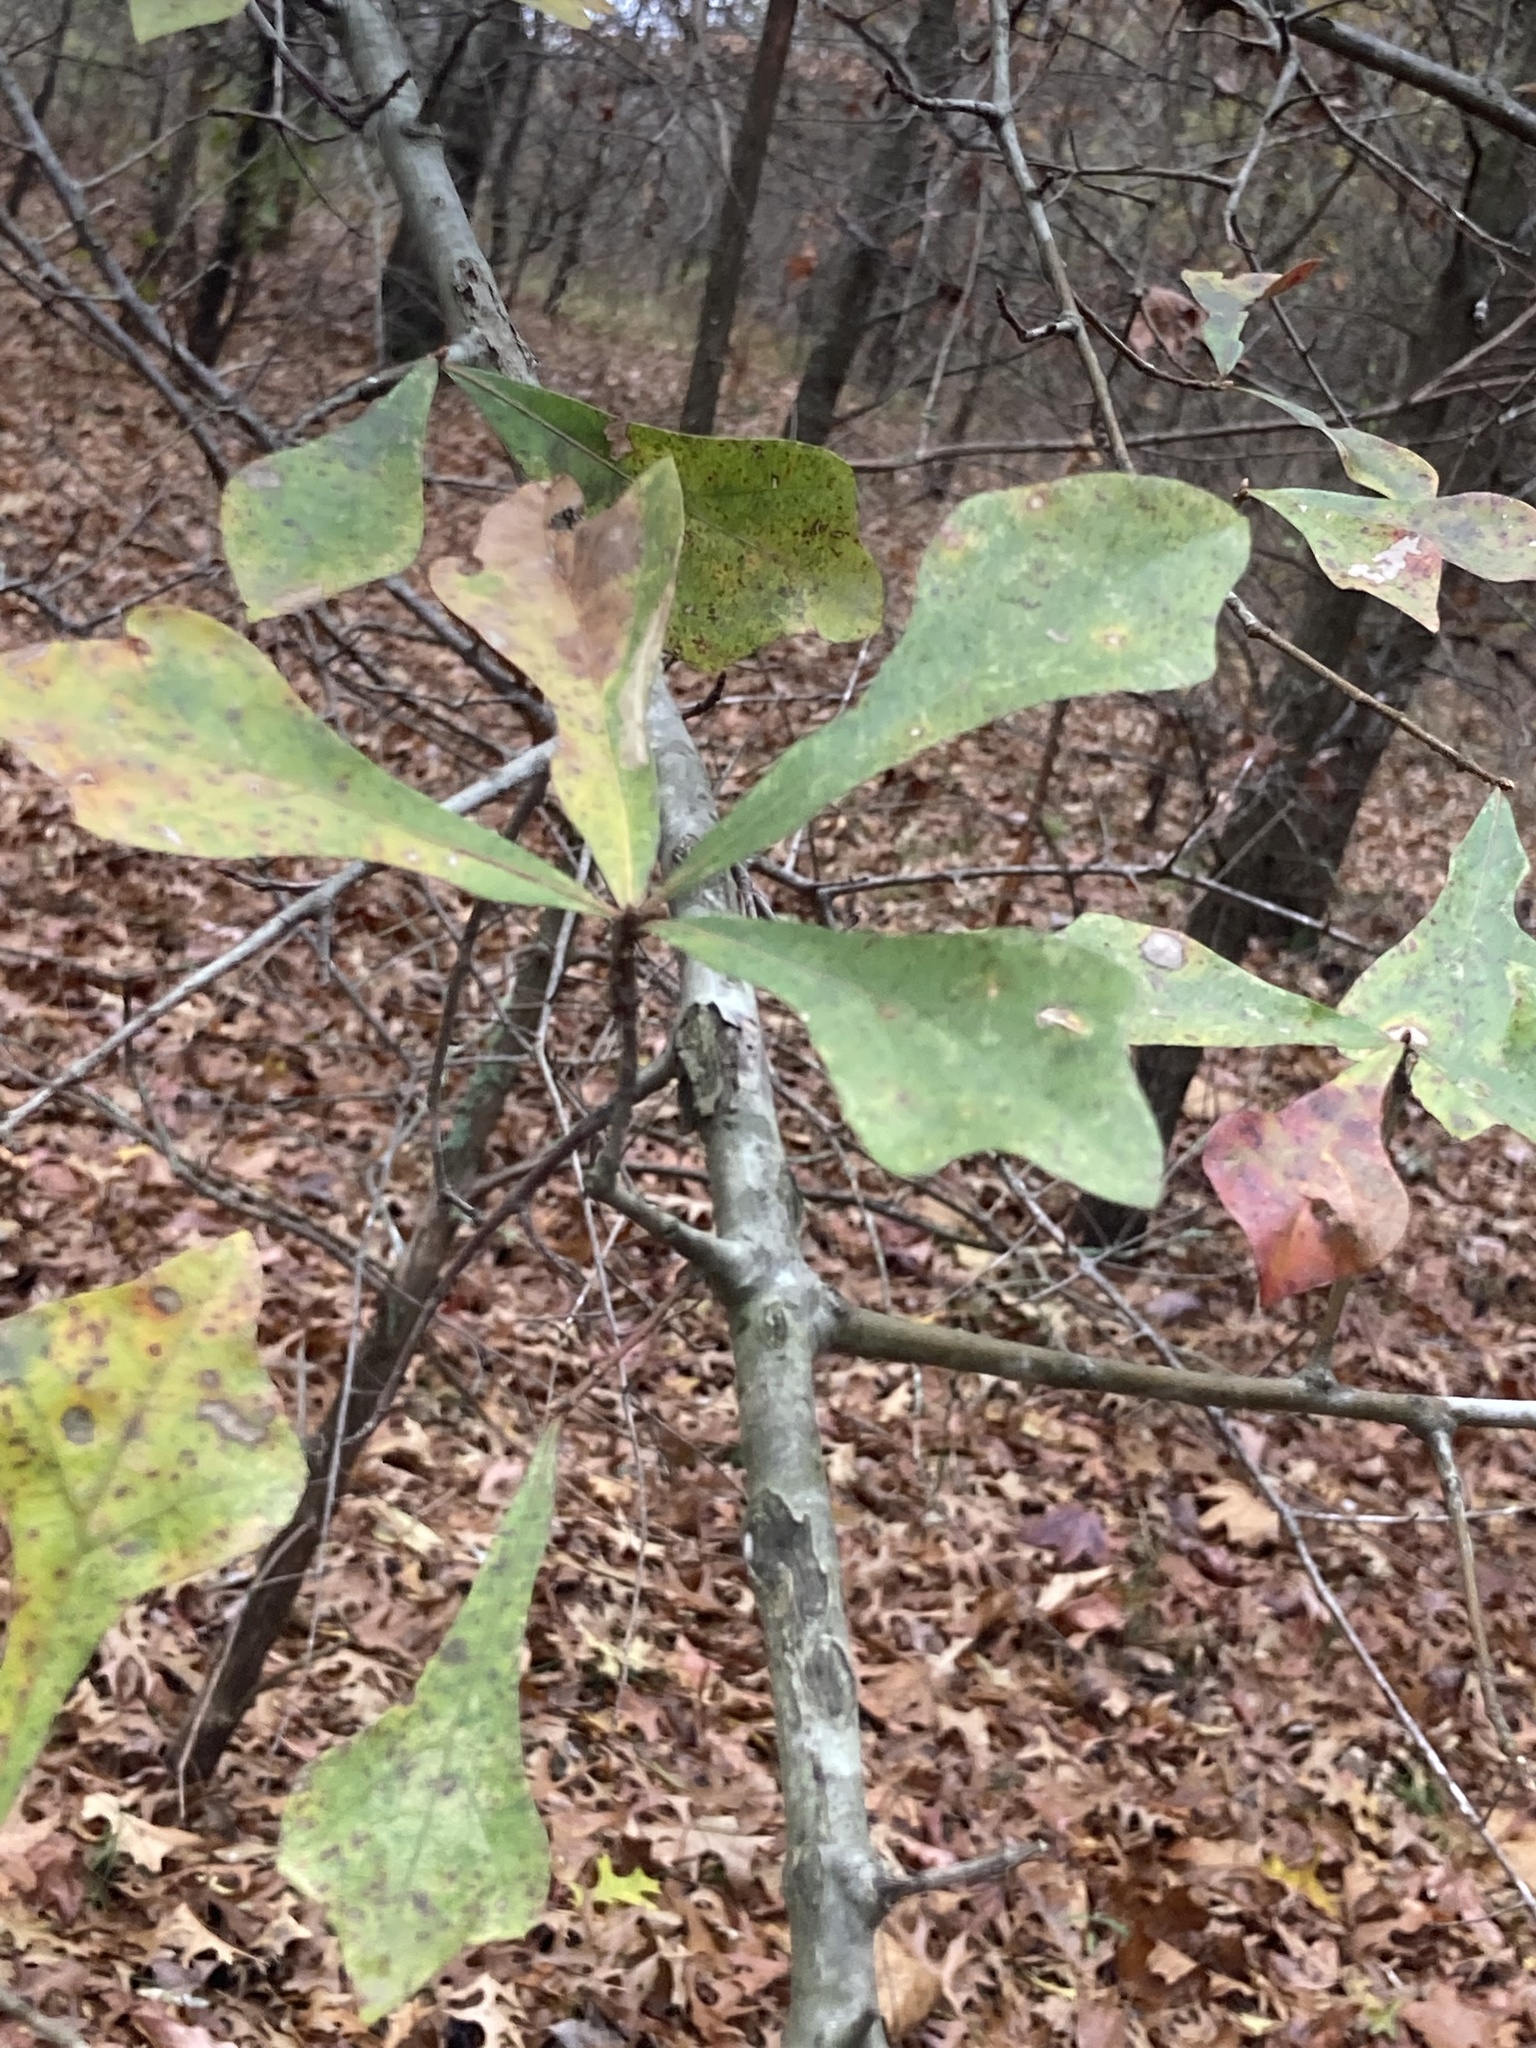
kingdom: Plantae
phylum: Tracheophyta
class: Magnoliopsida
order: Fagales
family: Fagaceae
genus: Quercus
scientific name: Quercus nigra
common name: Water oak
